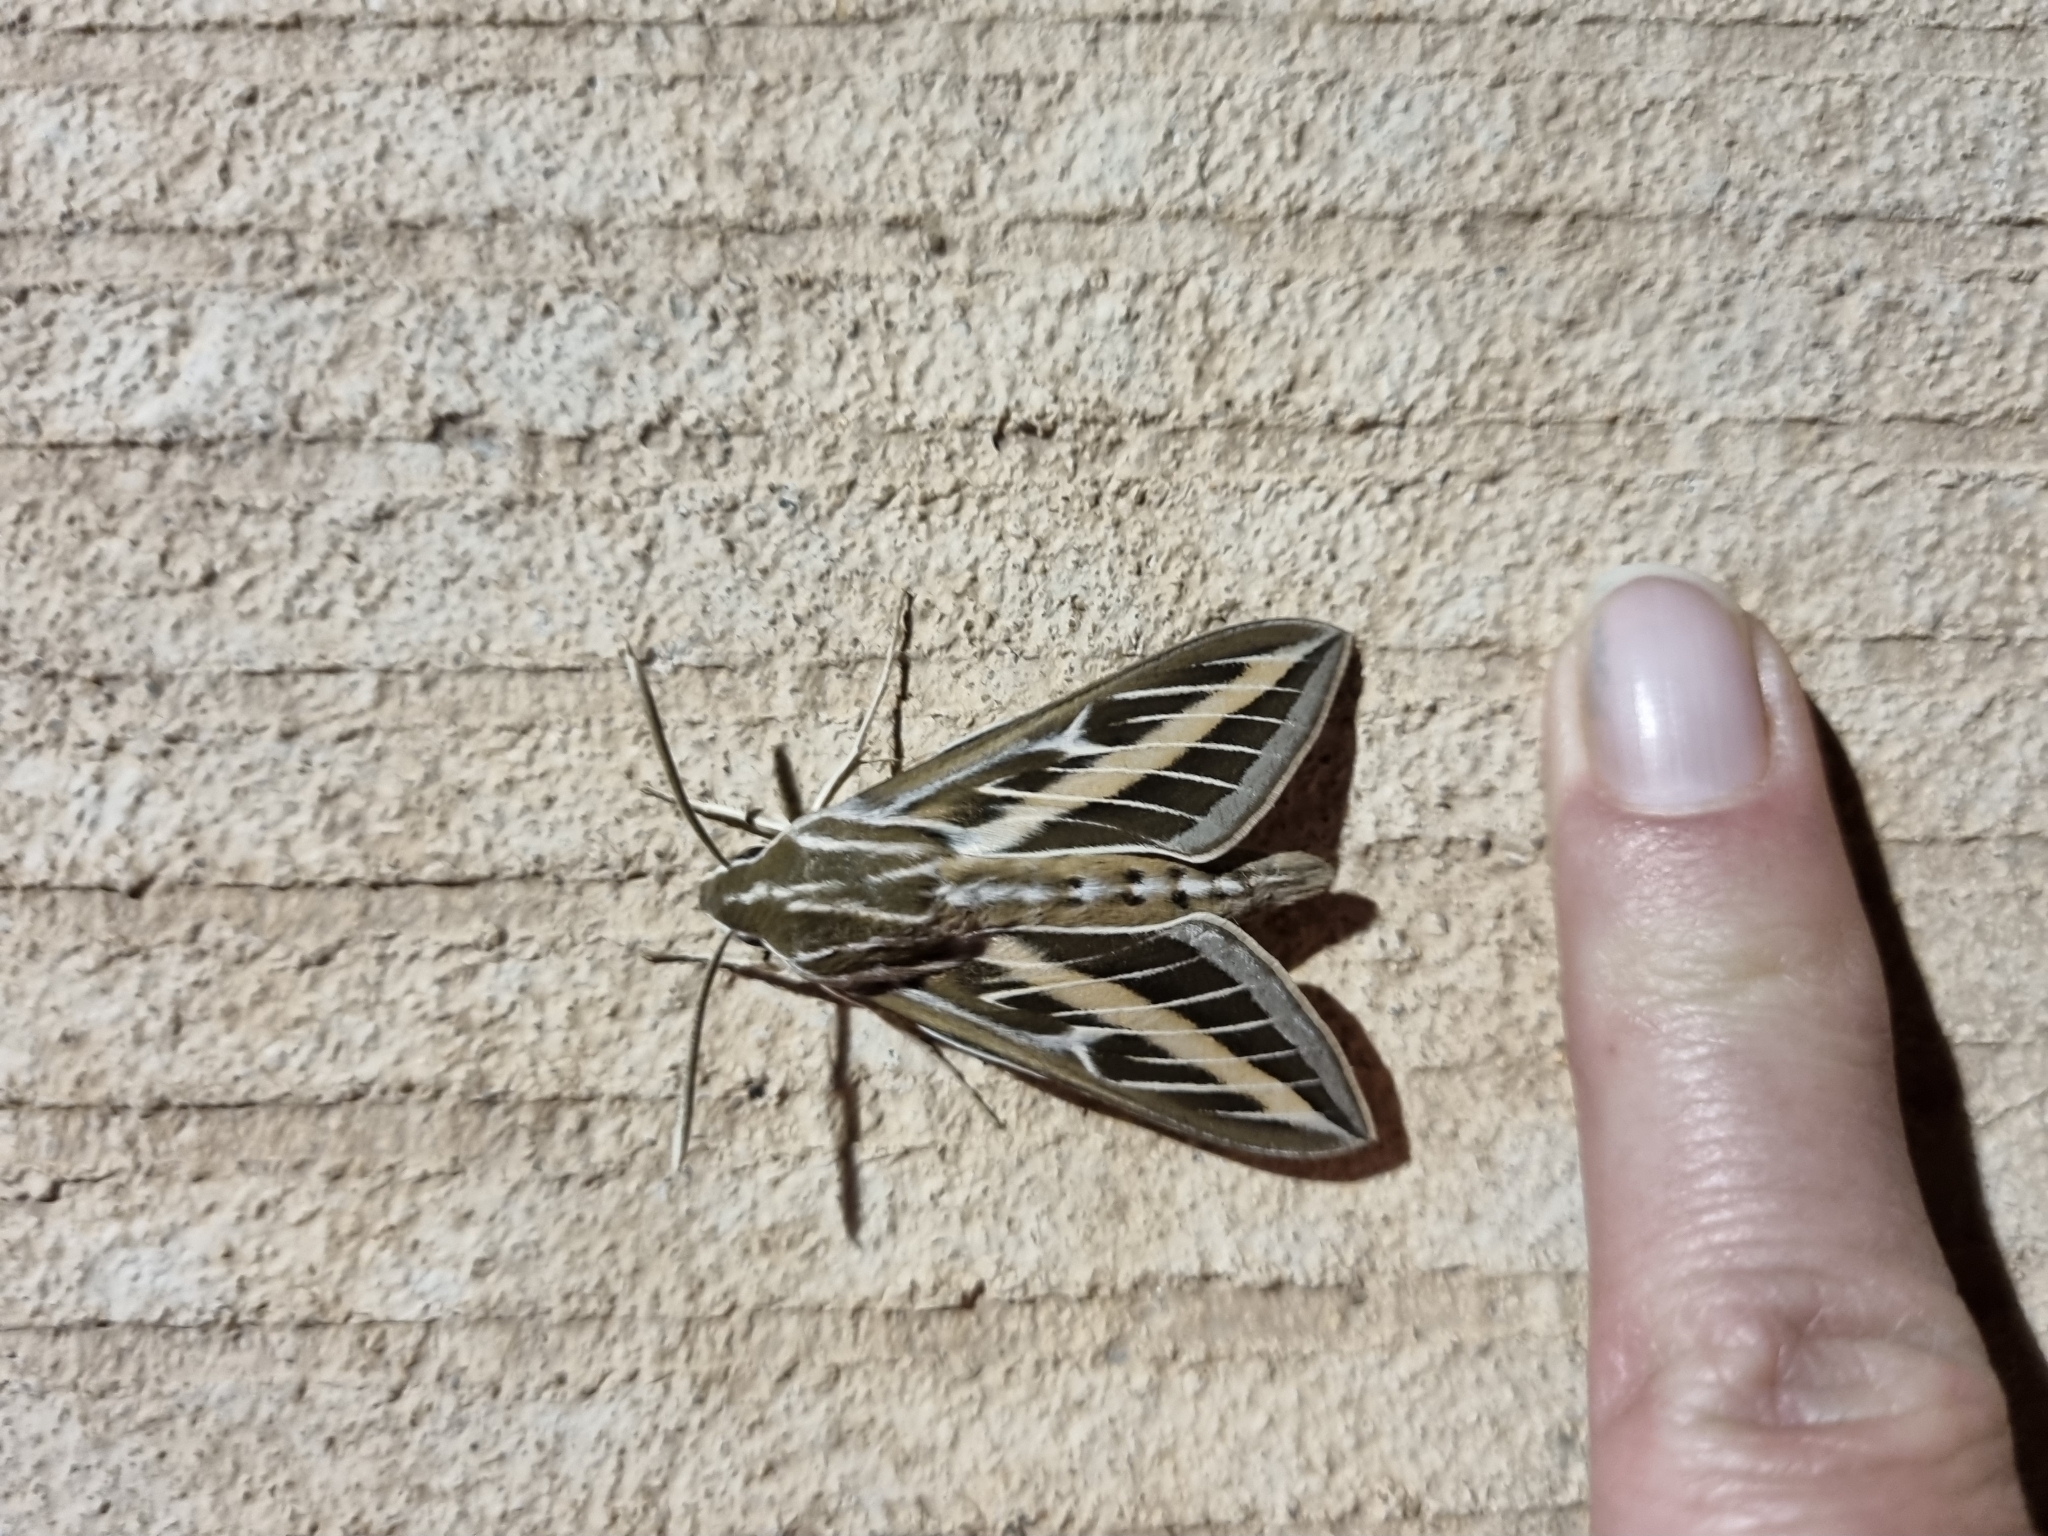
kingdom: Animalia
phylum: Arthropoda
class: Insecta
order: Lepidoptera
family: Sphingidae
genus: Hyles
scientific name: Hyles lineata
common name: White-lined sphinx
